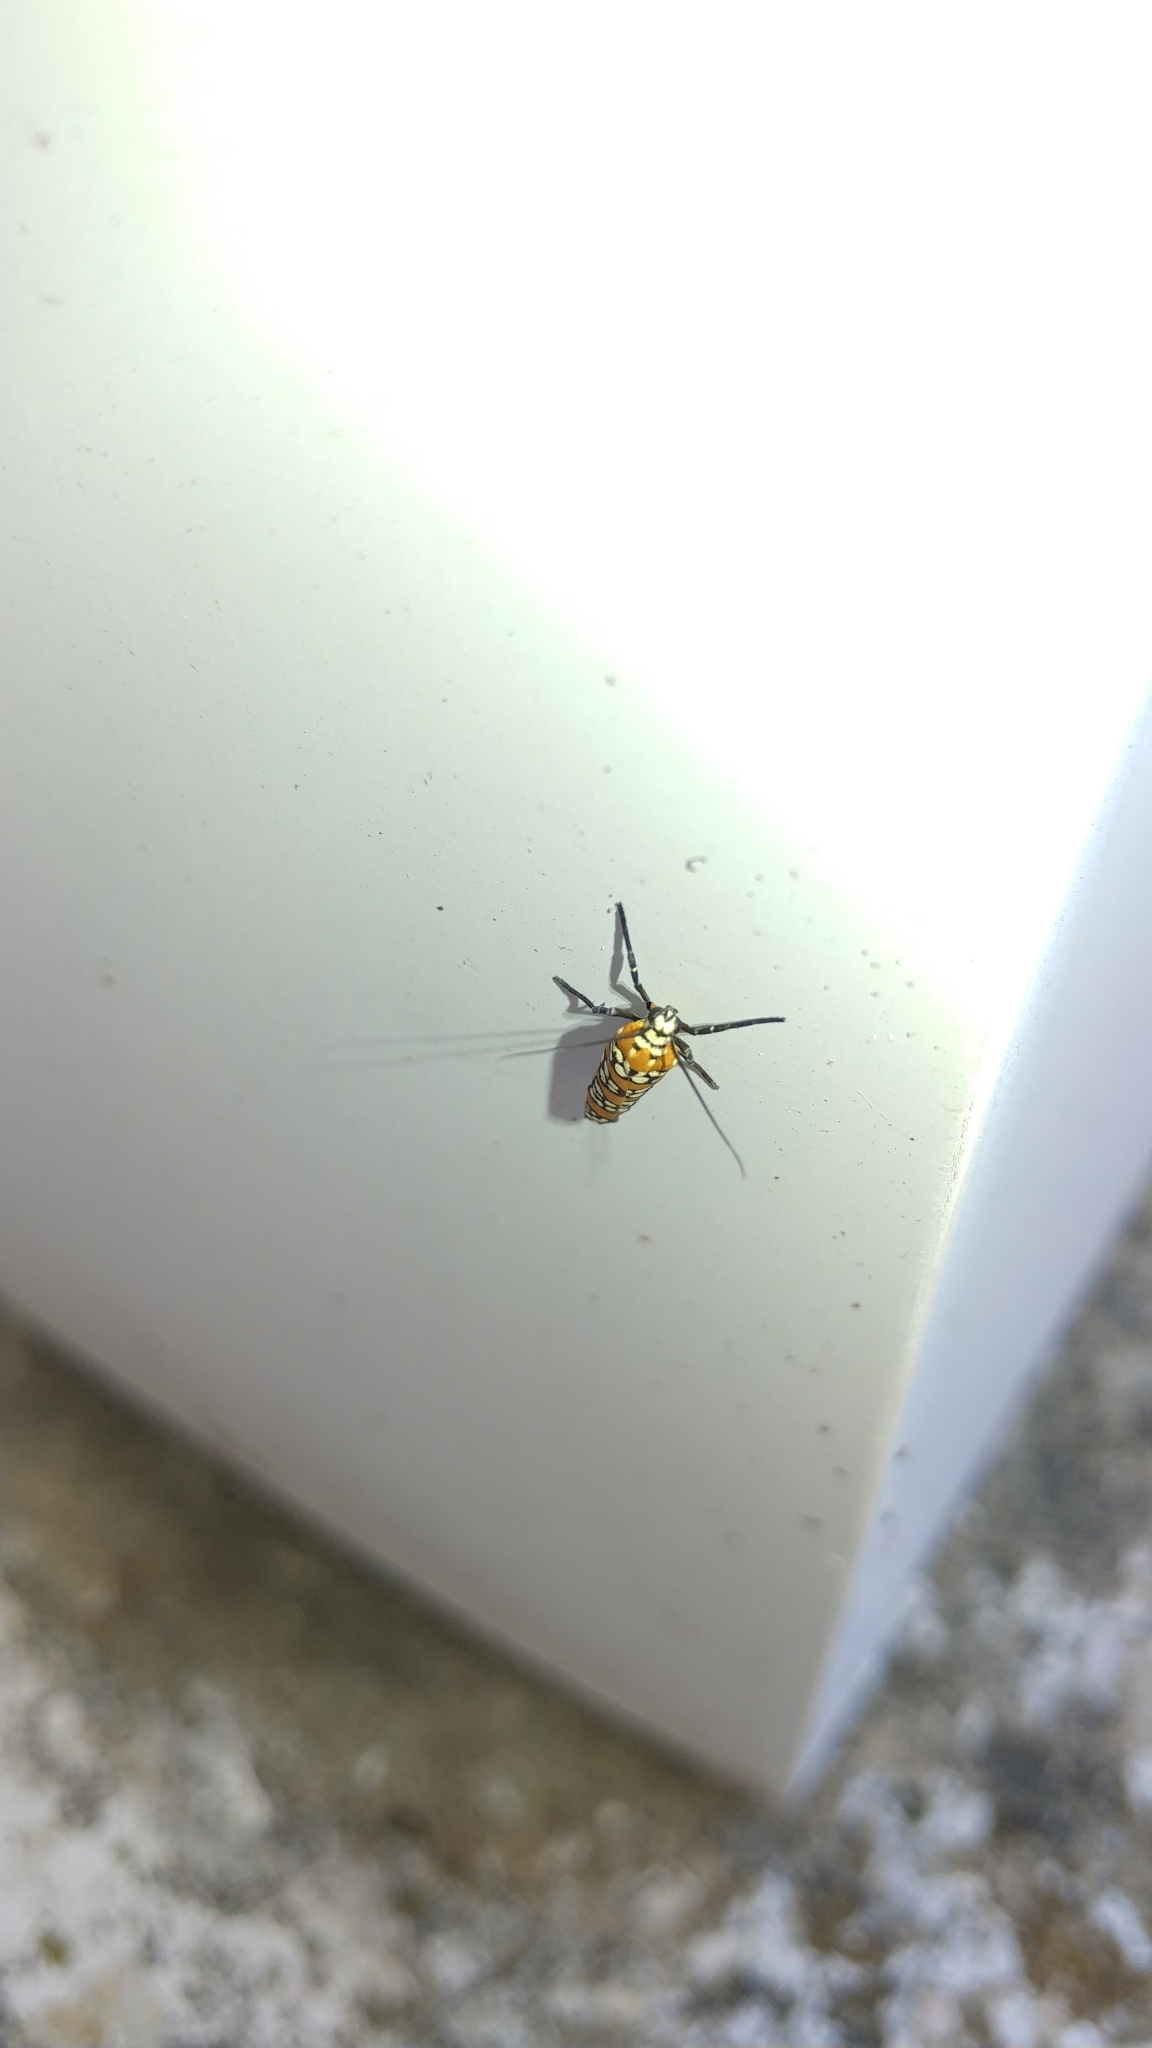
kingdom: Animalia
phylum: Arthropoda
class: Insecta
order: Lepidoptera
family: Attevidae
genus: Atteva
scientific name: Atteva punctella
